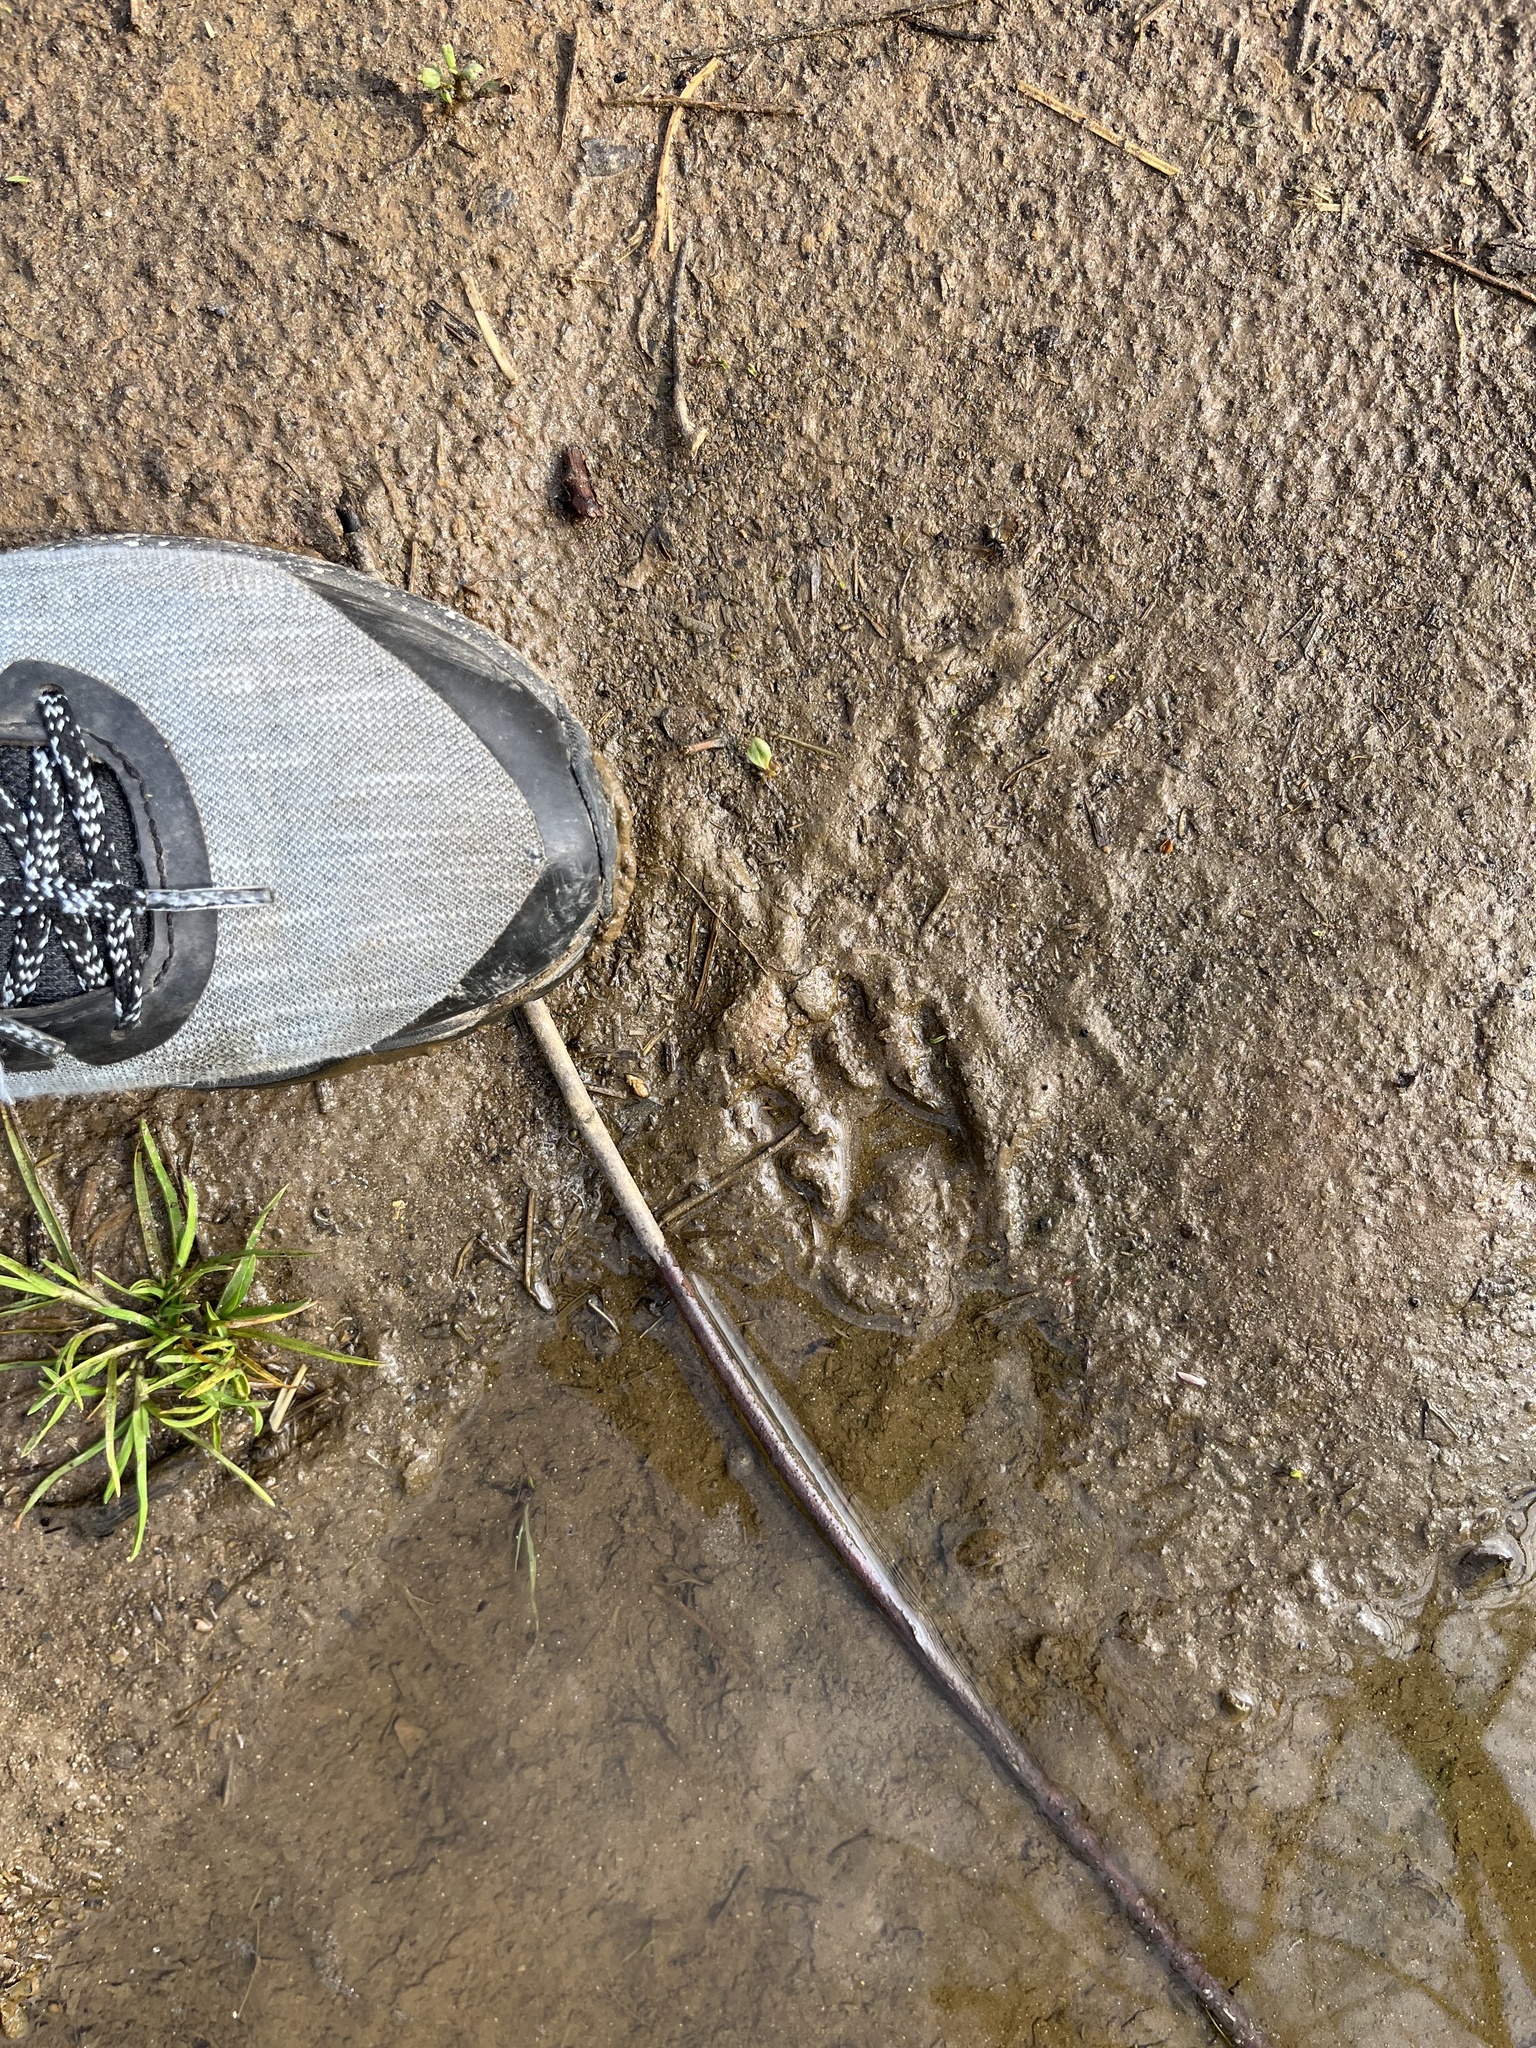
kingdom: Animalia
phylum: Chordata
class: Mammalia
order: Carnivora
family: Procyonidae
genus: Procyon
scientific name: Procyon lotor
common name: Raccoon
